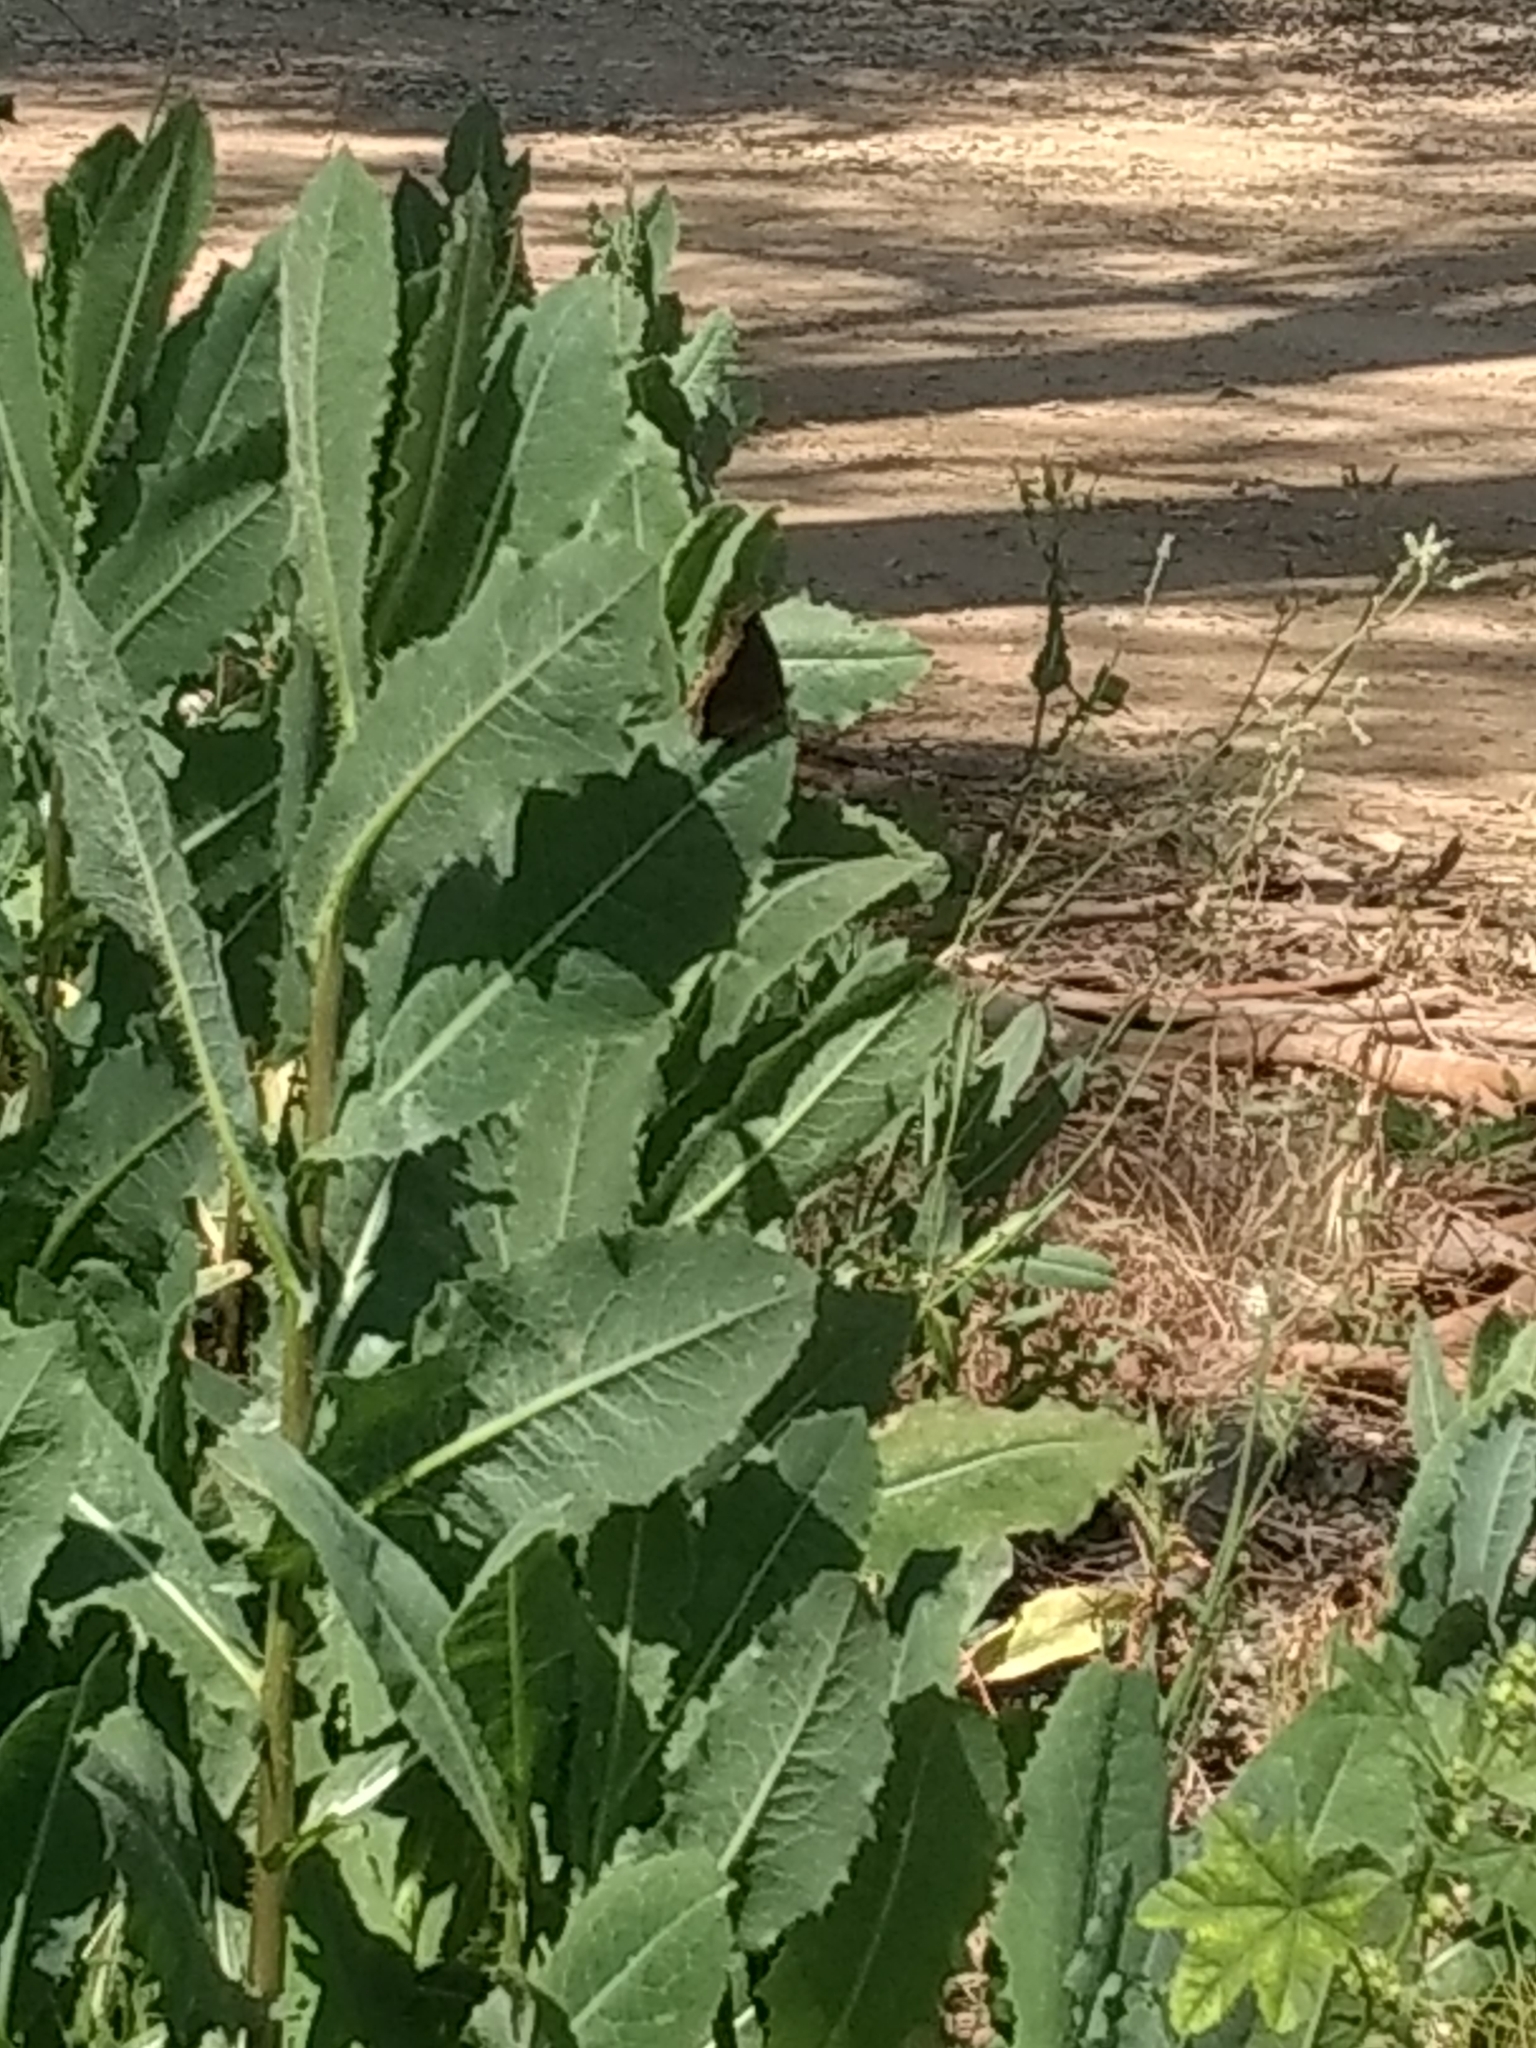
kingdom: Animalia
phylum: Arthropoda
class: Insecta
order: Lepidoptera
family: Nymphalidae
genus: Nymphalis
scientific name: Nymphalis antiopa
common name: Camberwell beauty
